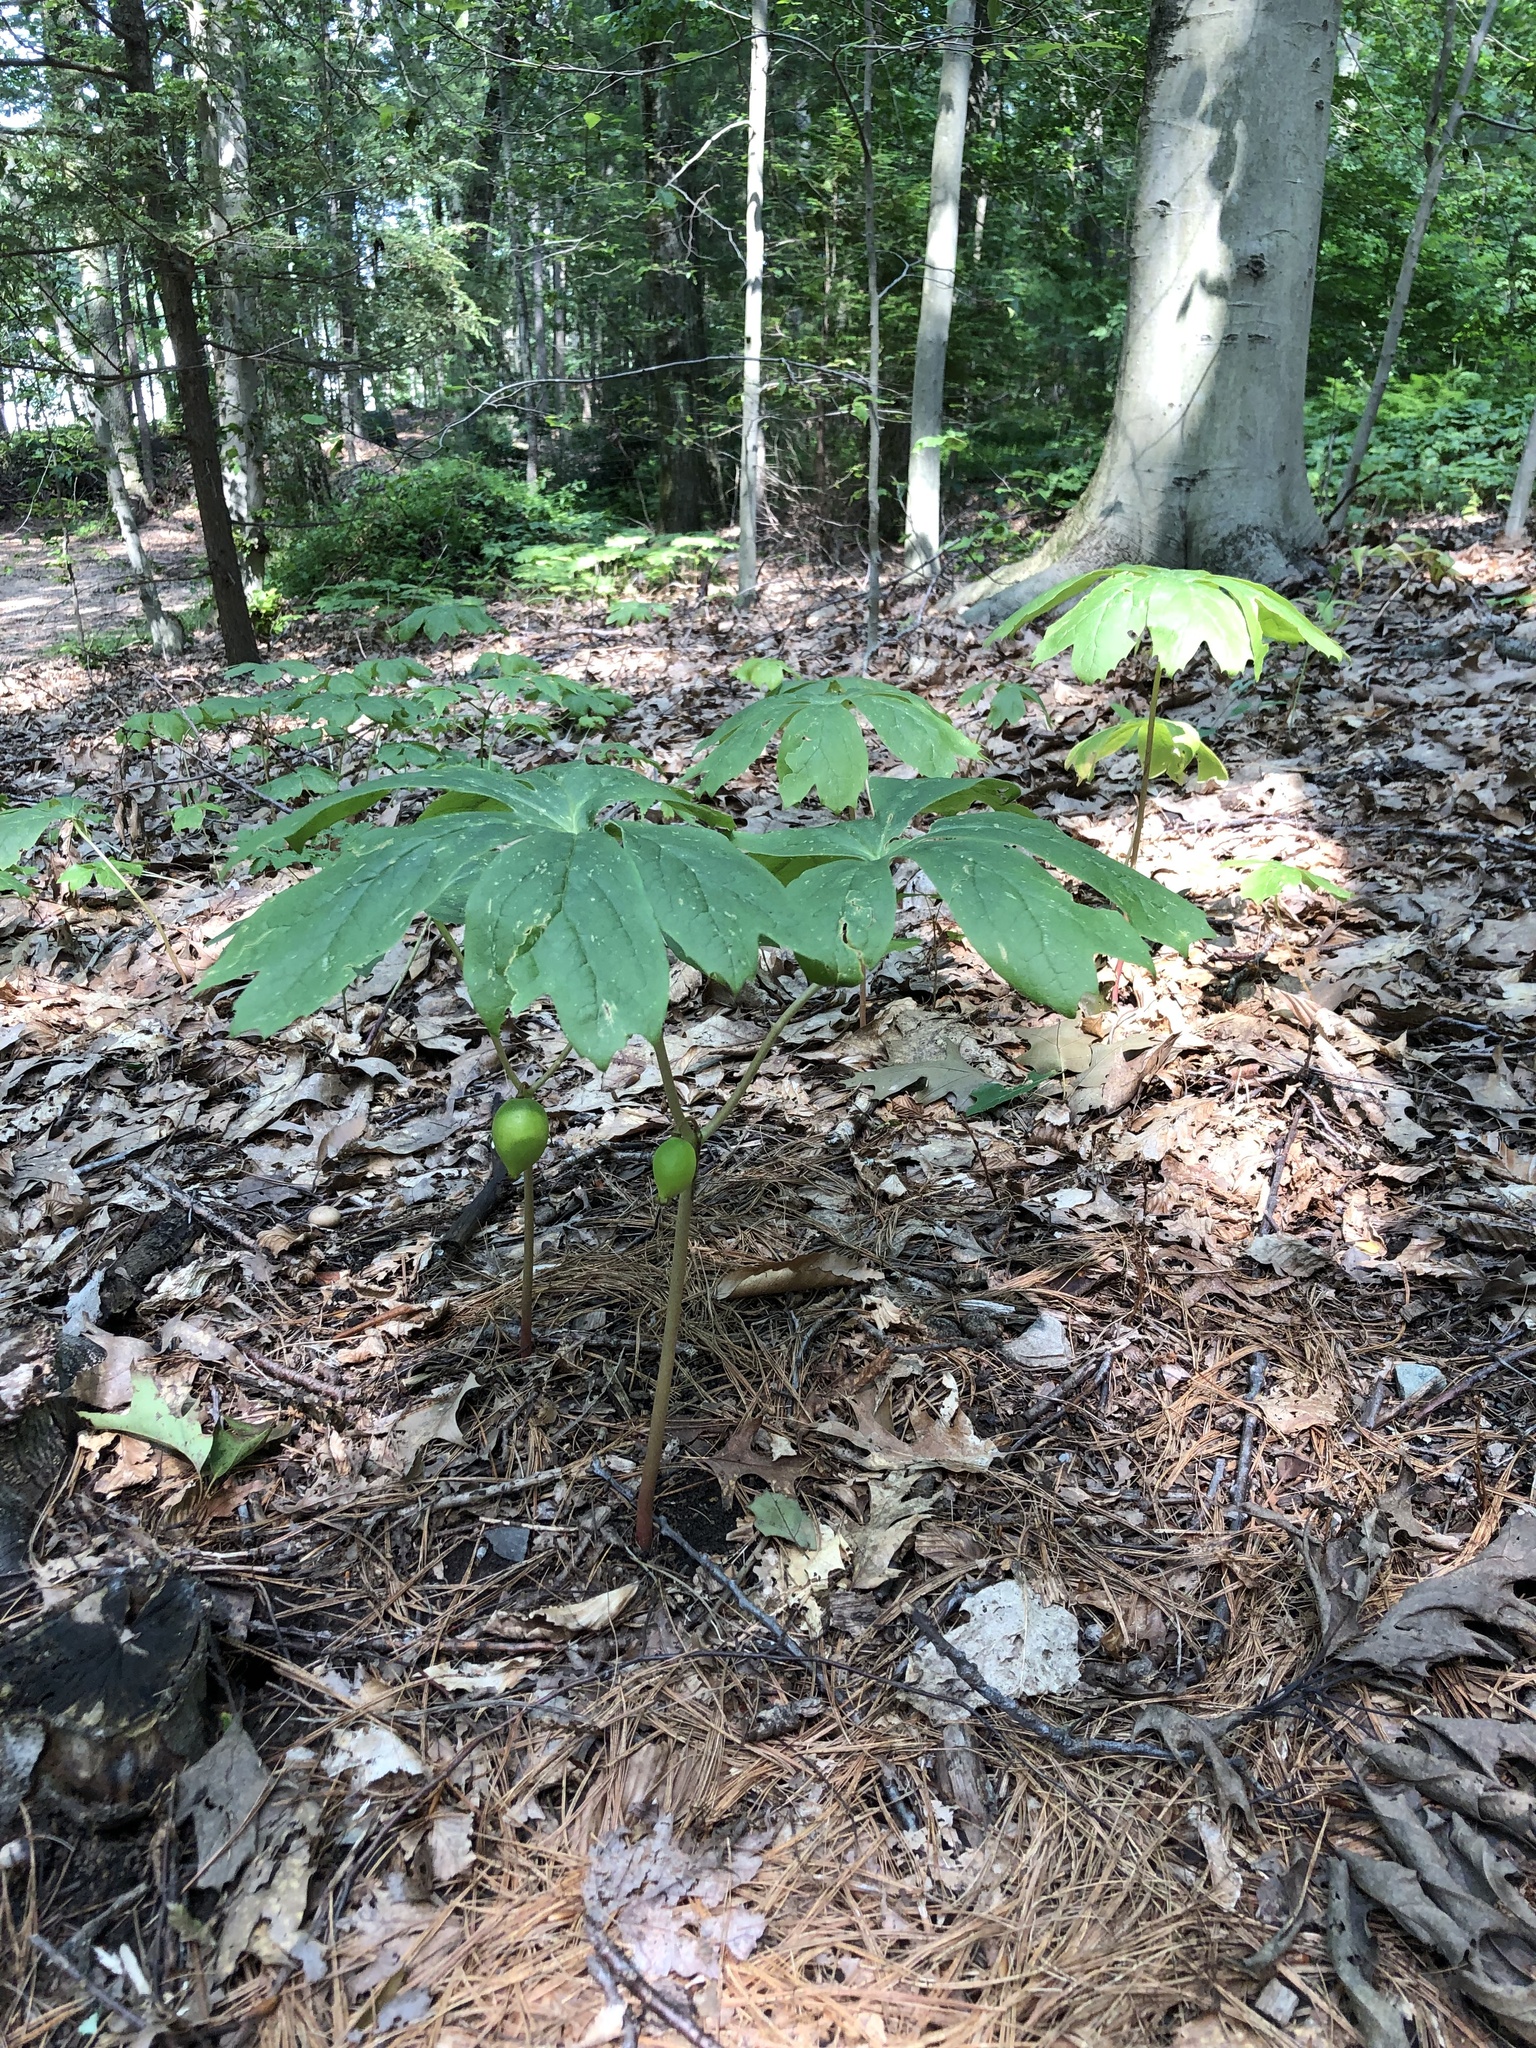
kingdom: Plantae
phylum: Tracheophyta
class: Magnoliopsida
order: Ranunculales
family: Berberidaceae
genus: Podophyllum
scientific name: Podophyllum peltatum
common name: Wild mandrake
